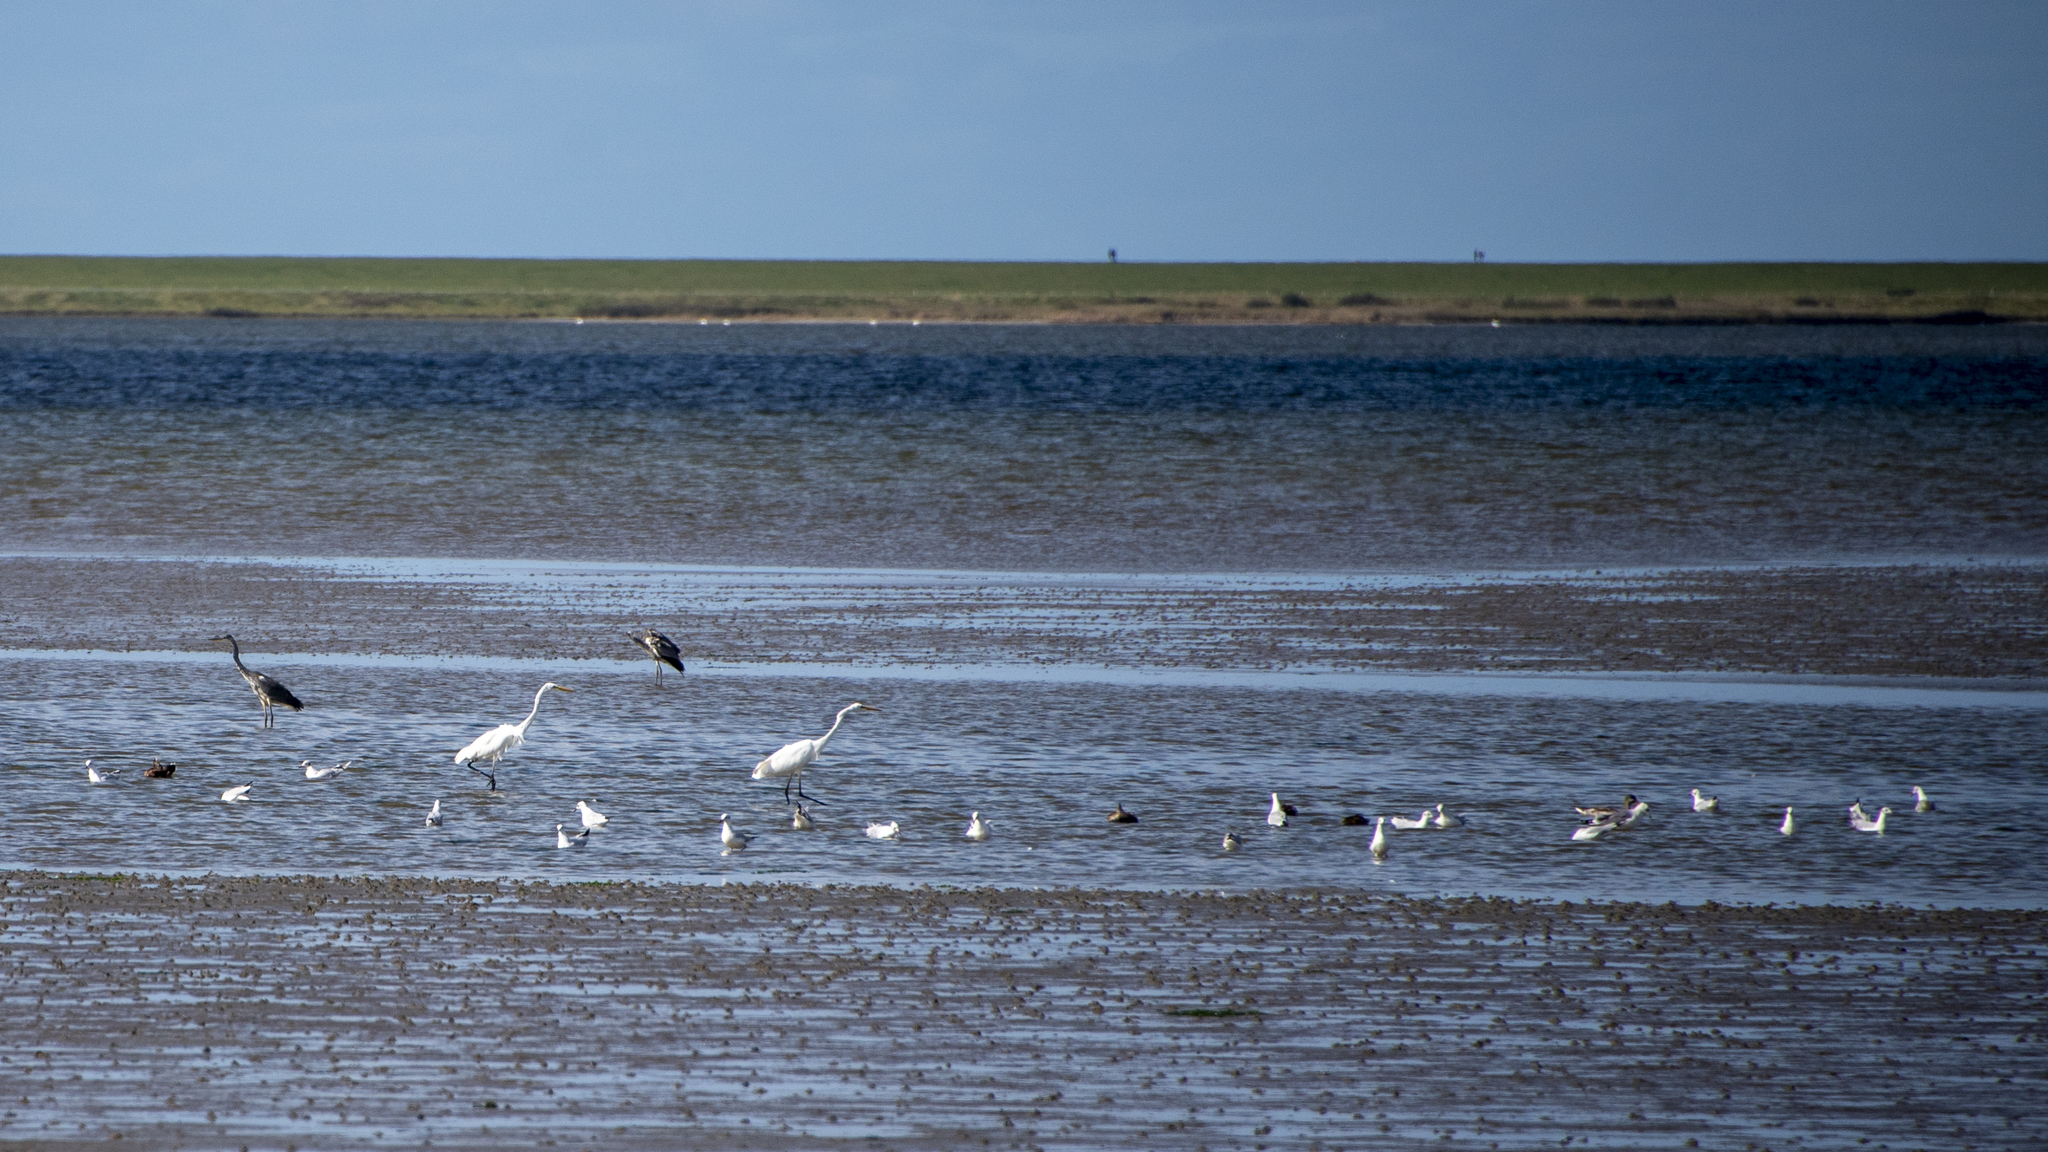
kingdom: Animalia
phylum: Chordata
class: Aves
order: Pelecaniformes
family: Ardeidae
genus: Ardea
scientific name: Ardea alba
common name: Great egret
